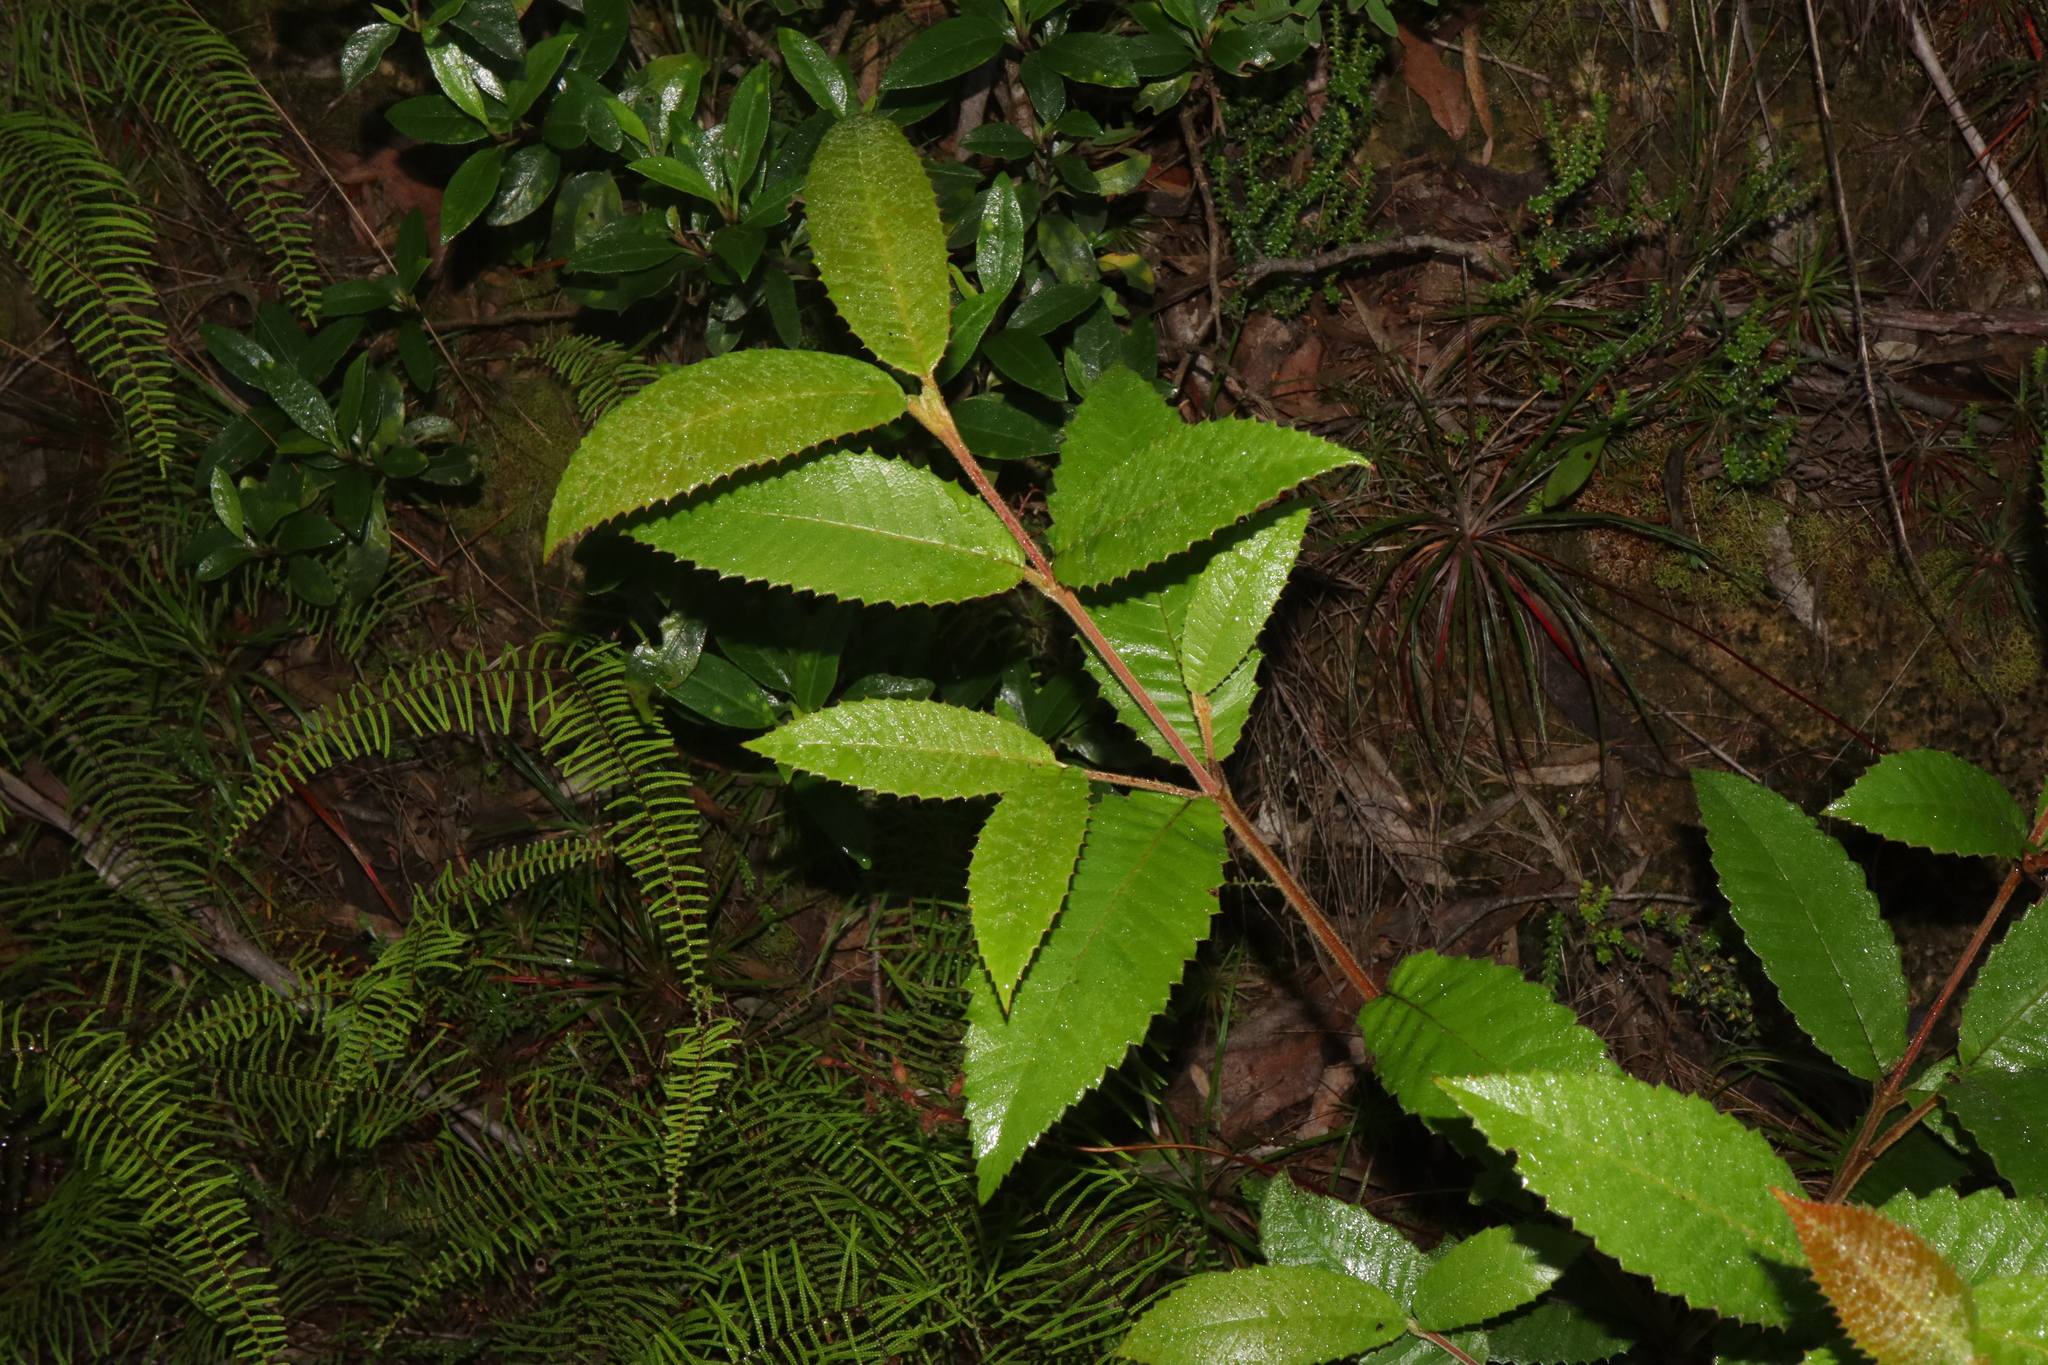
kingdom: Plantae
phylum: Tracheophyta
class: Magnoliopsida
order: Oxalidales
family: Cunoniaceae
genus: Callicoma
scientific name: Callicoma serratifolia
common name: Black wattle
